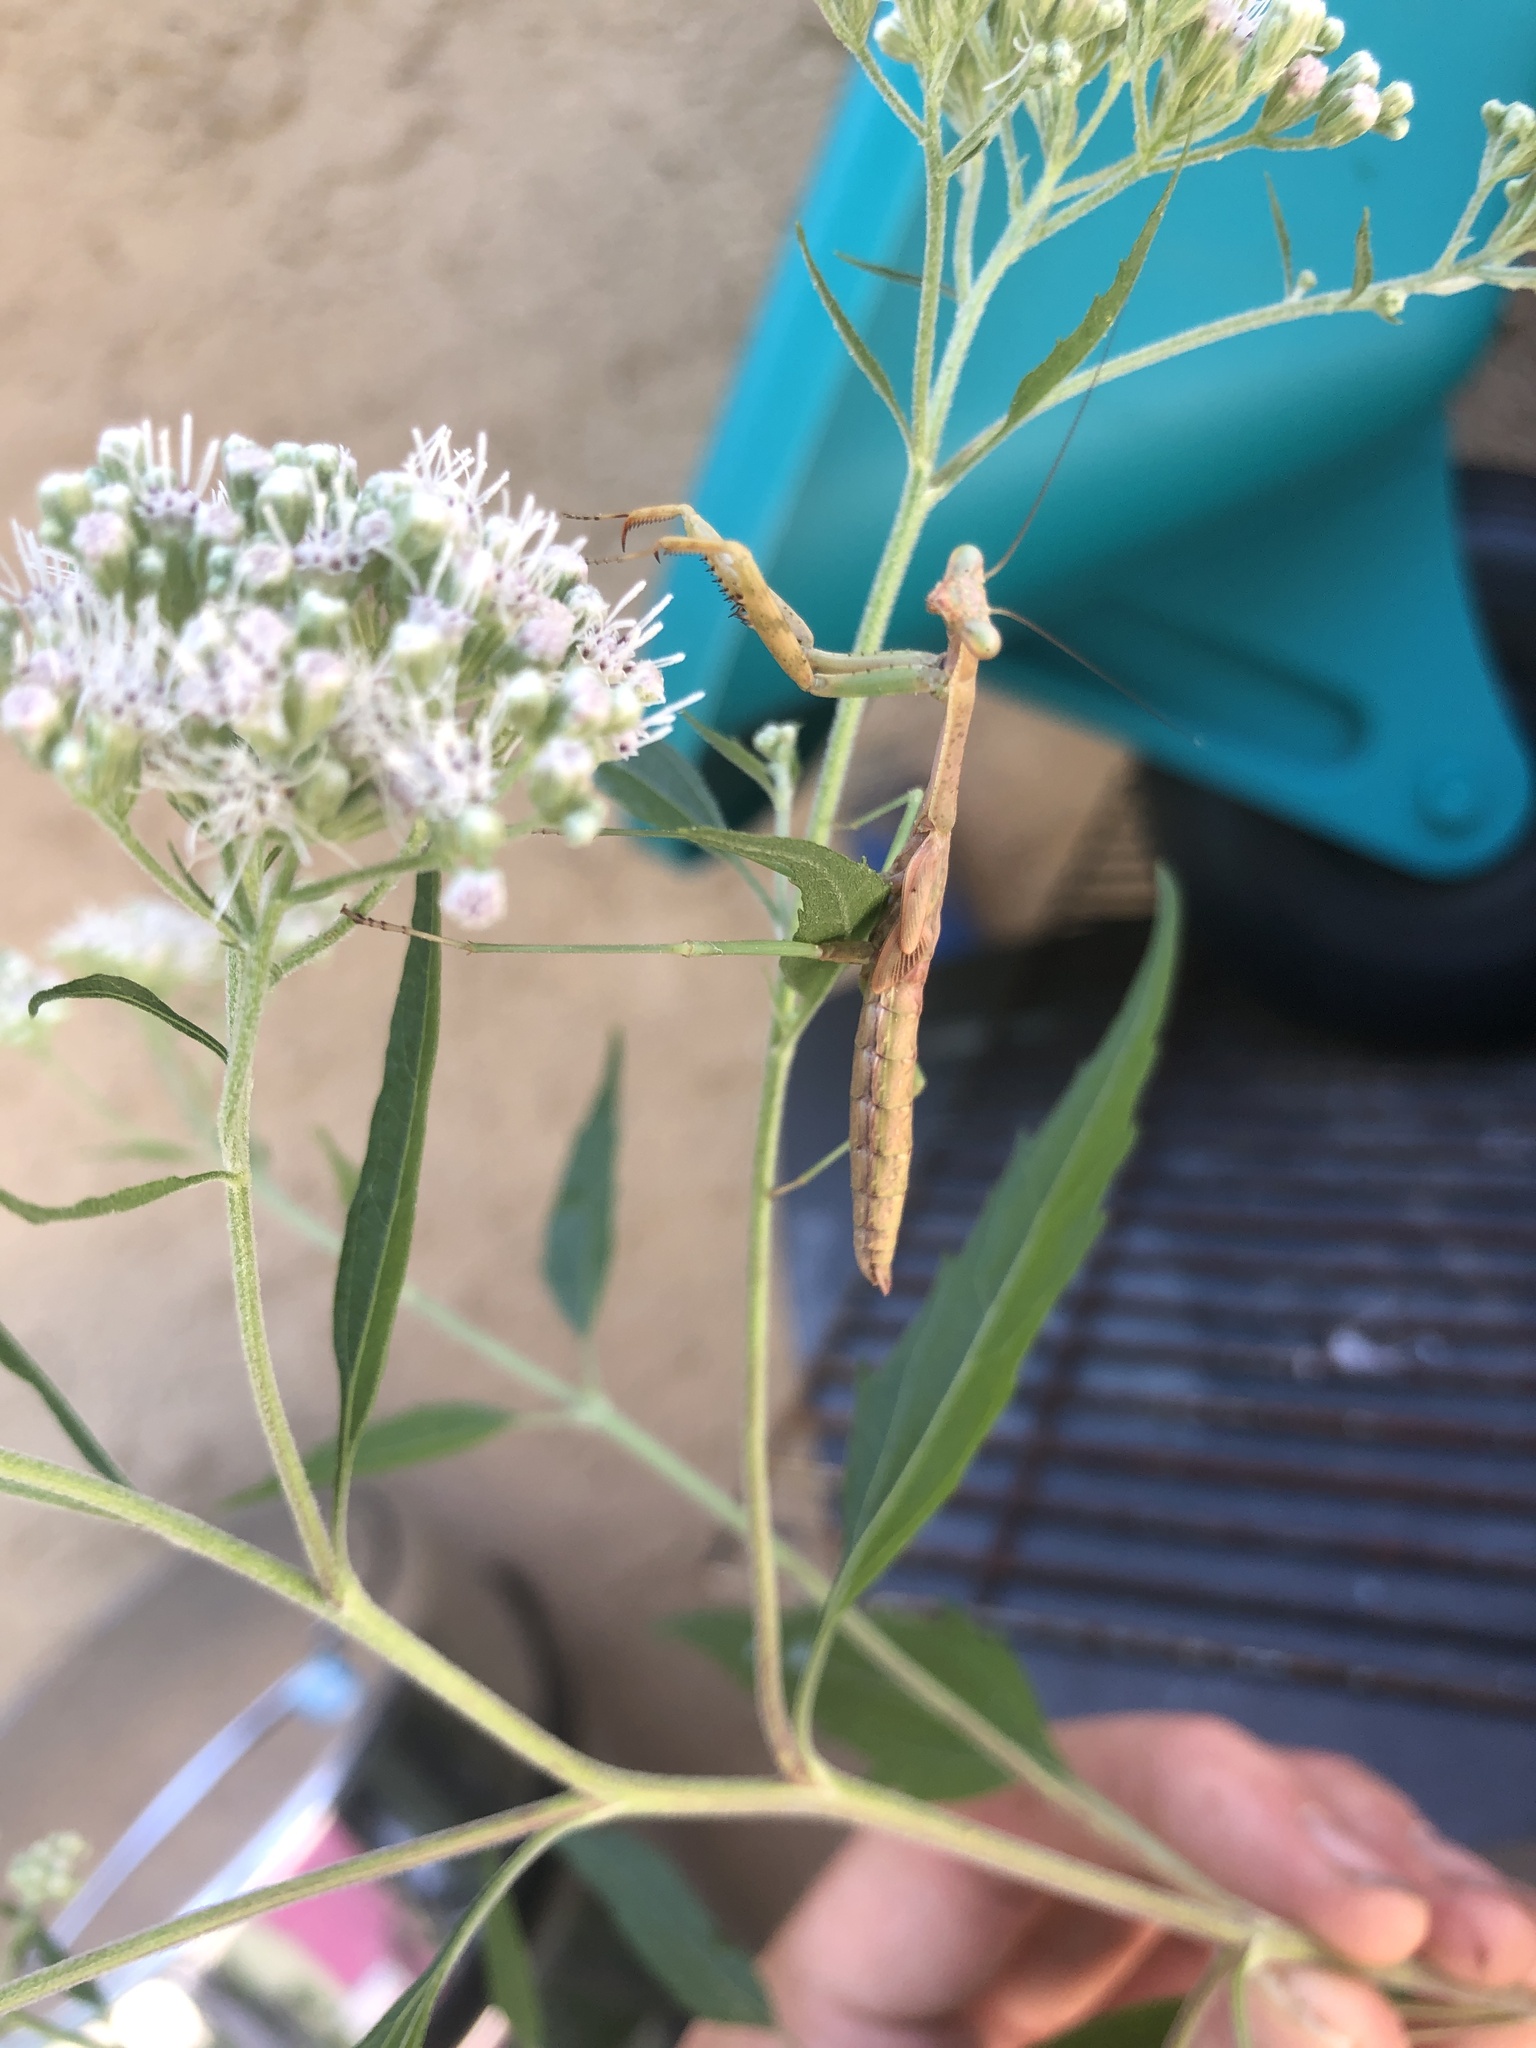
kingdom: Animalia
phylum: Arthropoda
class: Insecta
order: Mantodea
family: Mantidae
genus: Stagmomantis
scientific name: Stagmomantis carolina
